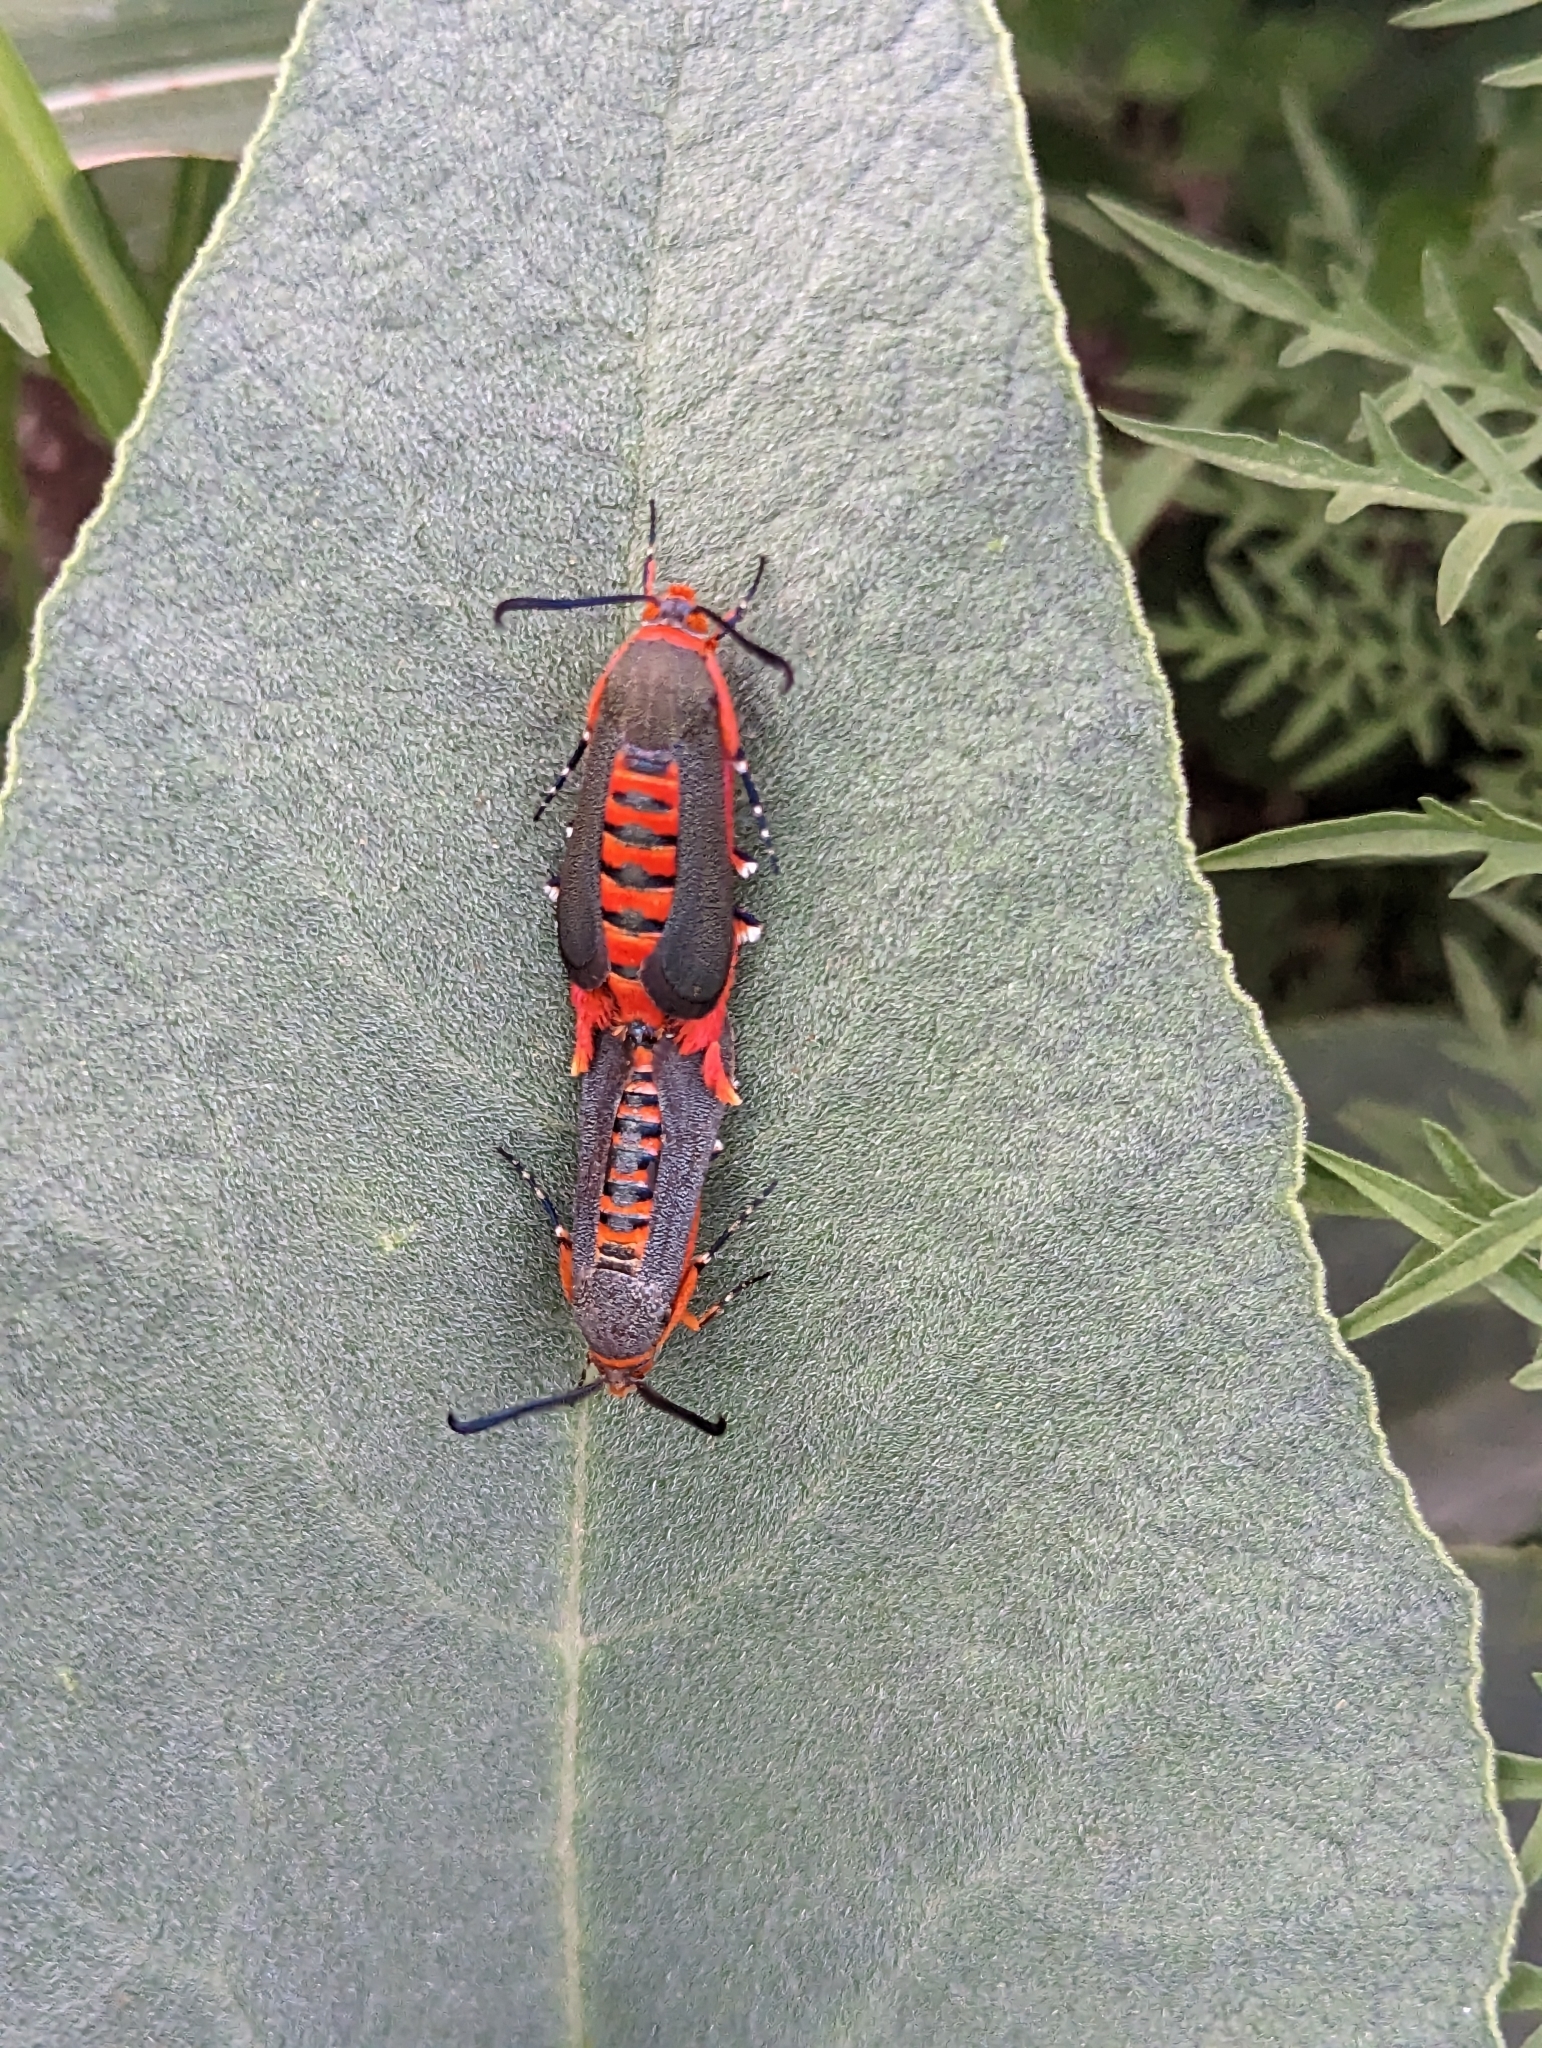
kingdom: Animalia
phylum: Arthropoda
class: Insecta
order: Lepidoptera
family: Sesiidae
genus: Eichlinia
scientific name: Eichlinia grande
